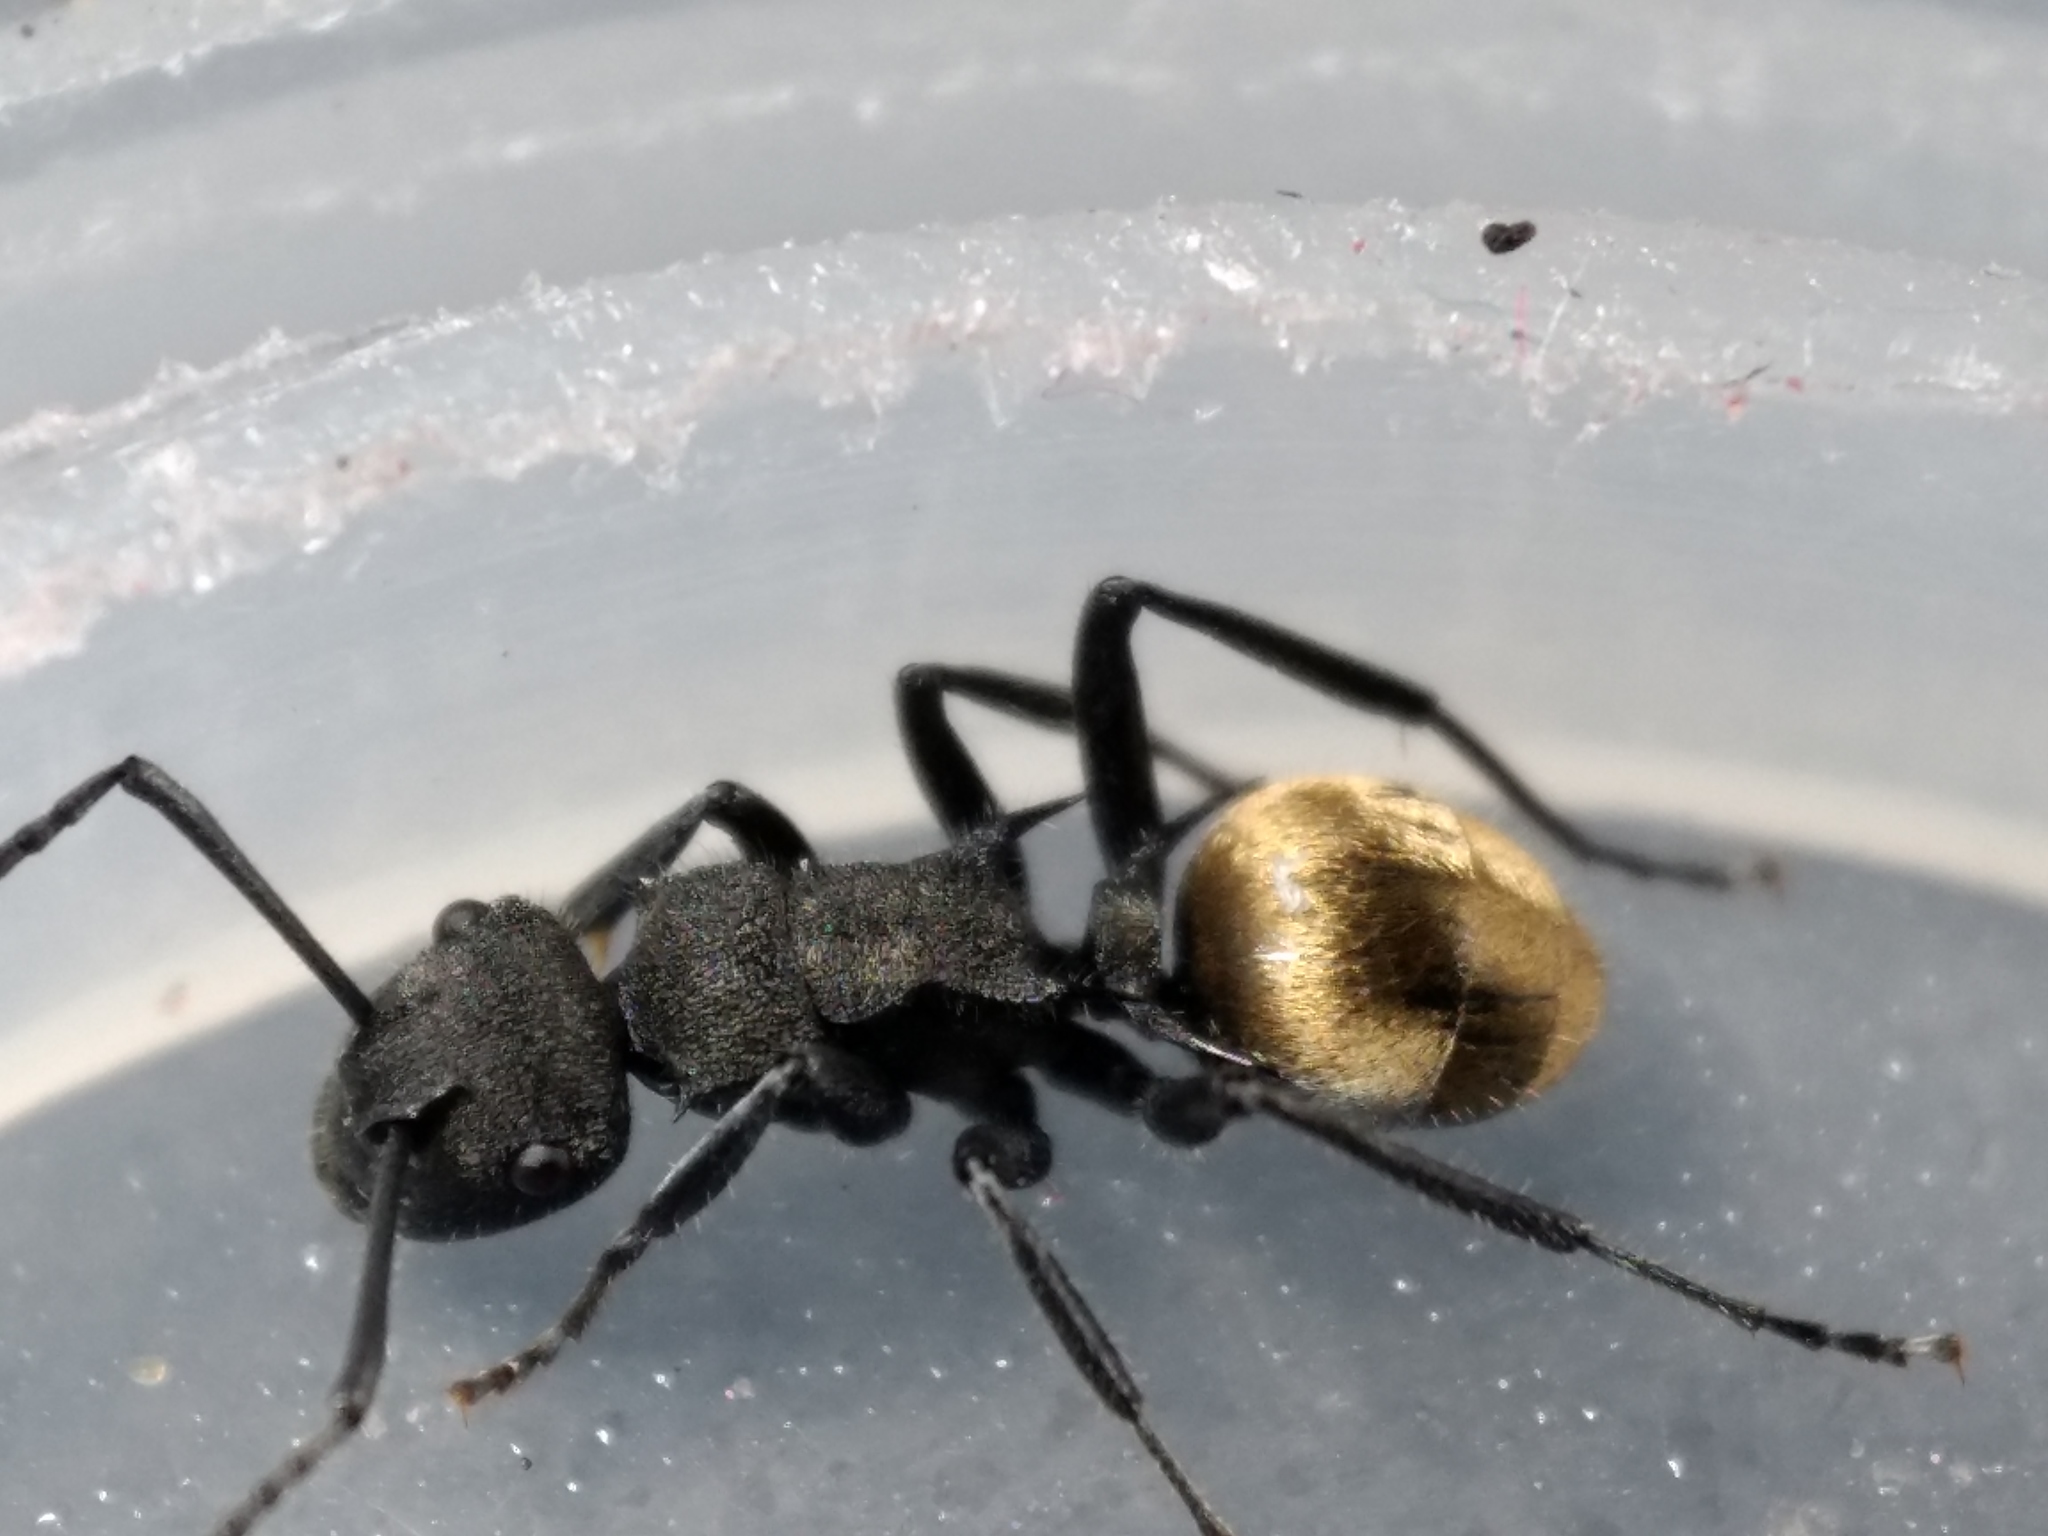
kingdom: Animalia
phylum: Arthropoda
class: Insecta
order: Hymenoptera
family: Formicidae
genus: Polyrhachis
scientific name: Polyrhachis erato
